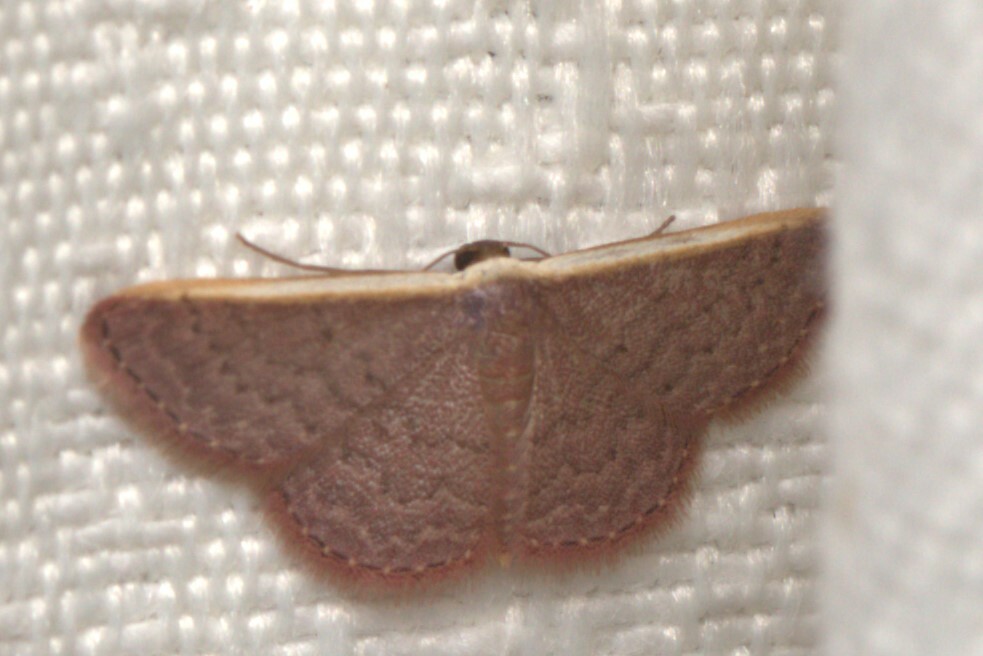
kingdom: Animalia
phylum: Arthropoda
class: Insecta
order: Lepidoptera
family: Geometridae
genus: Idaea
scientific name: Idaea inversata
